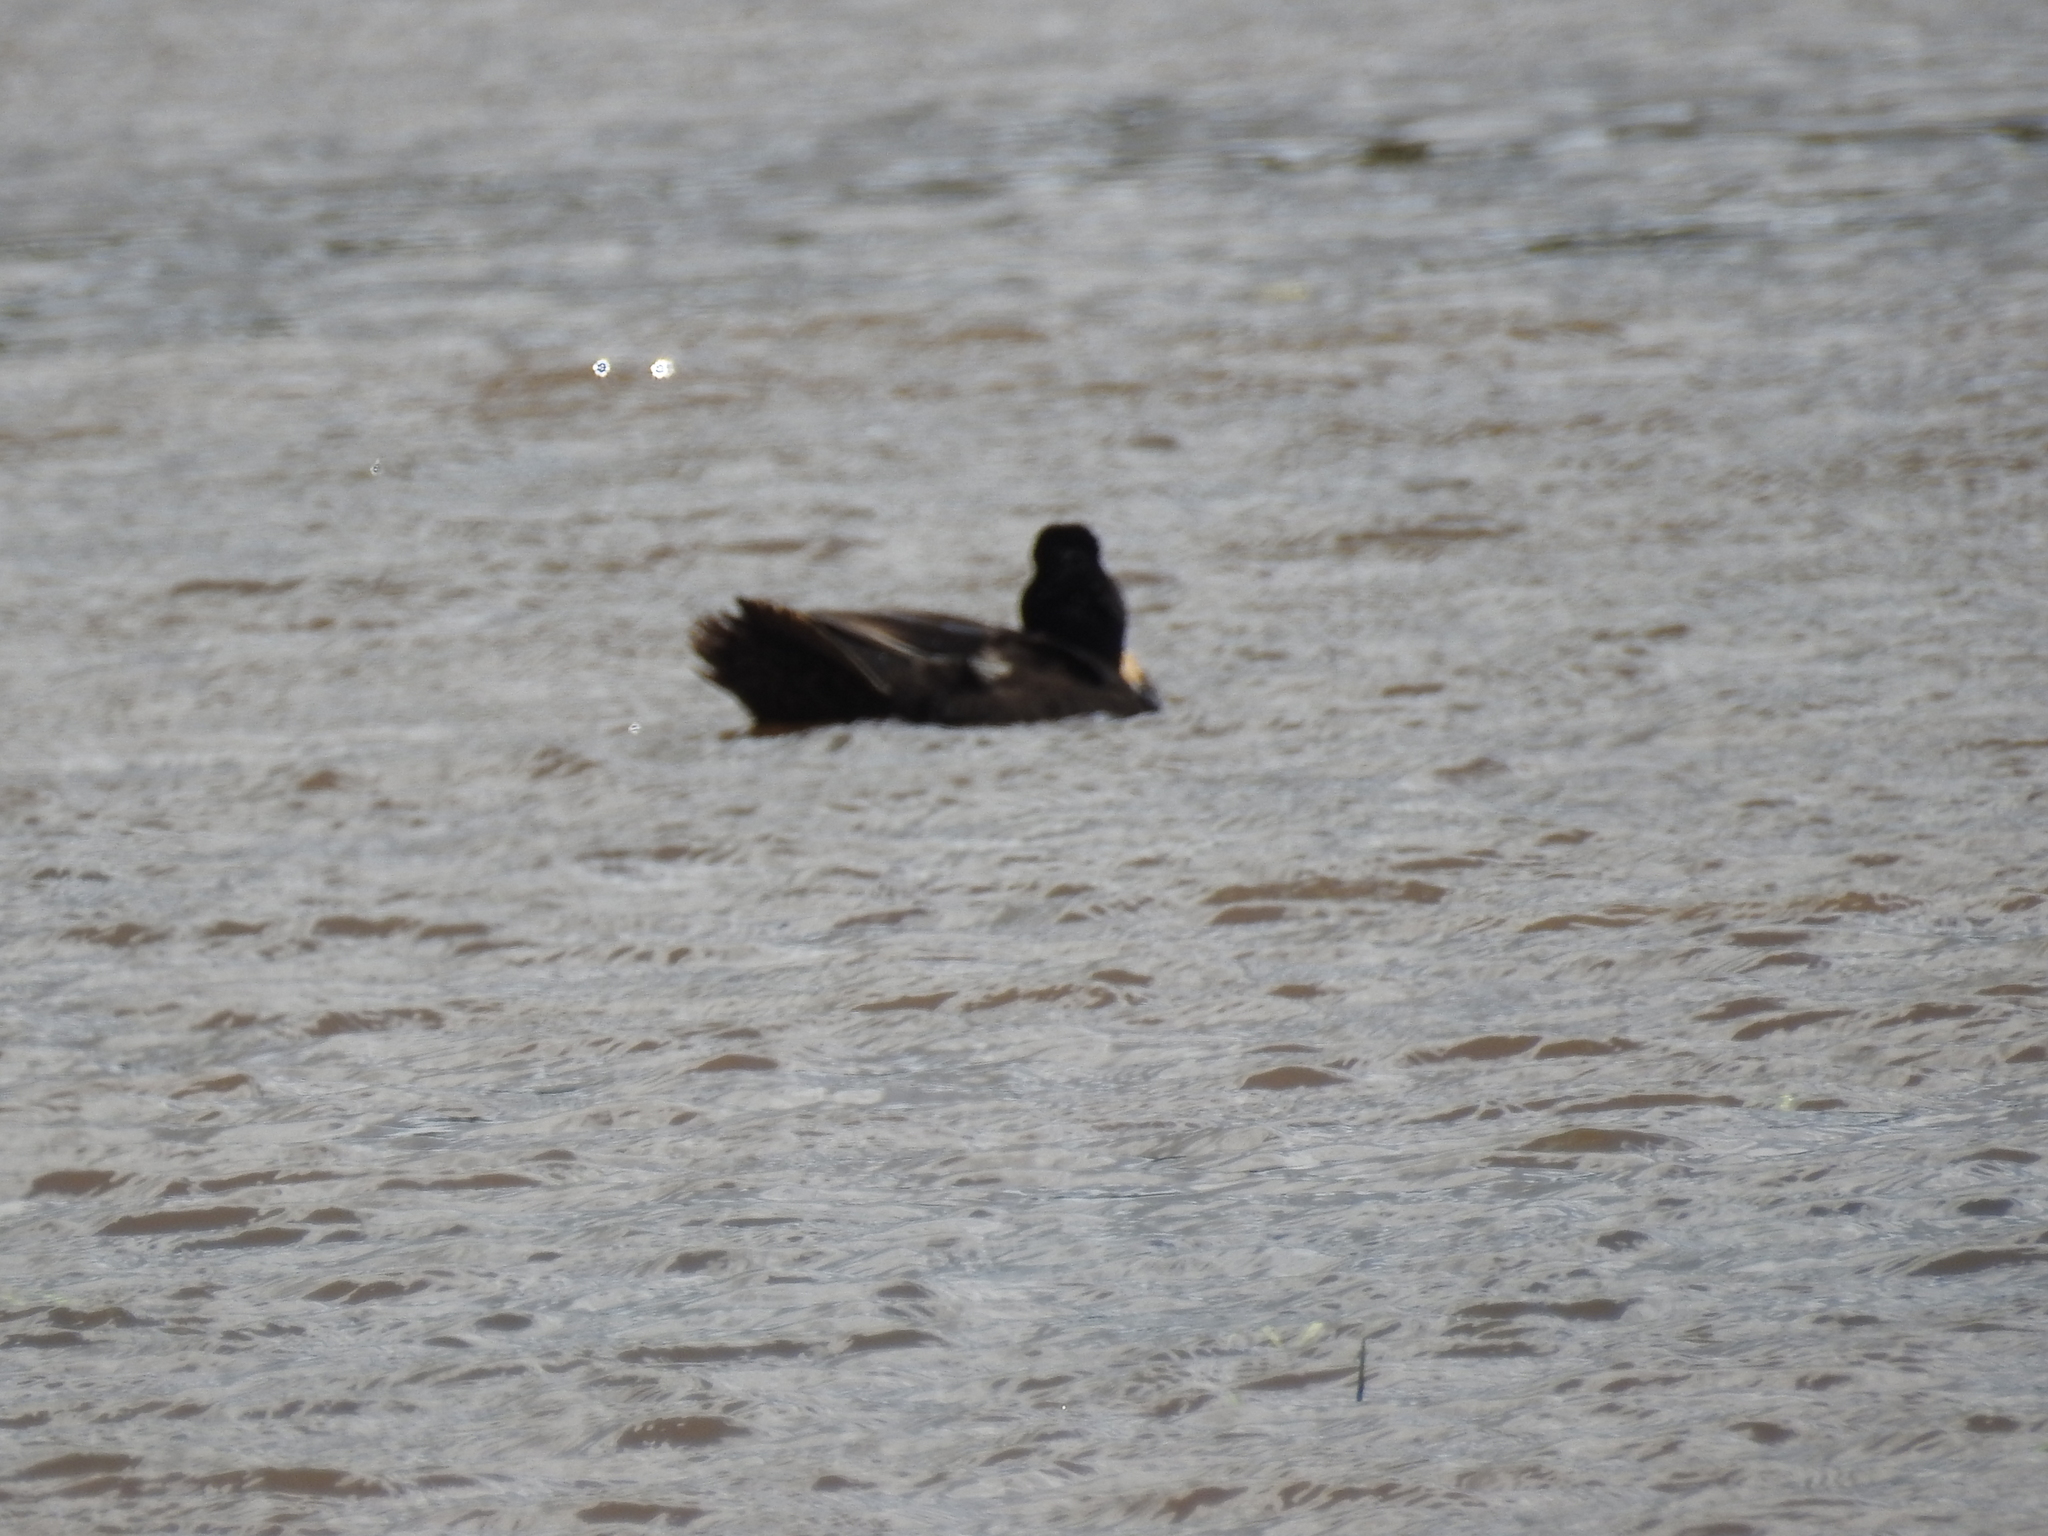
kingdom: Animalia
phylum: Chordata
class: Aves
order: Anseriformes
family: Anatidae
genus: Anas
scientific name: Anas platyrhynchos
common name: Mallard
